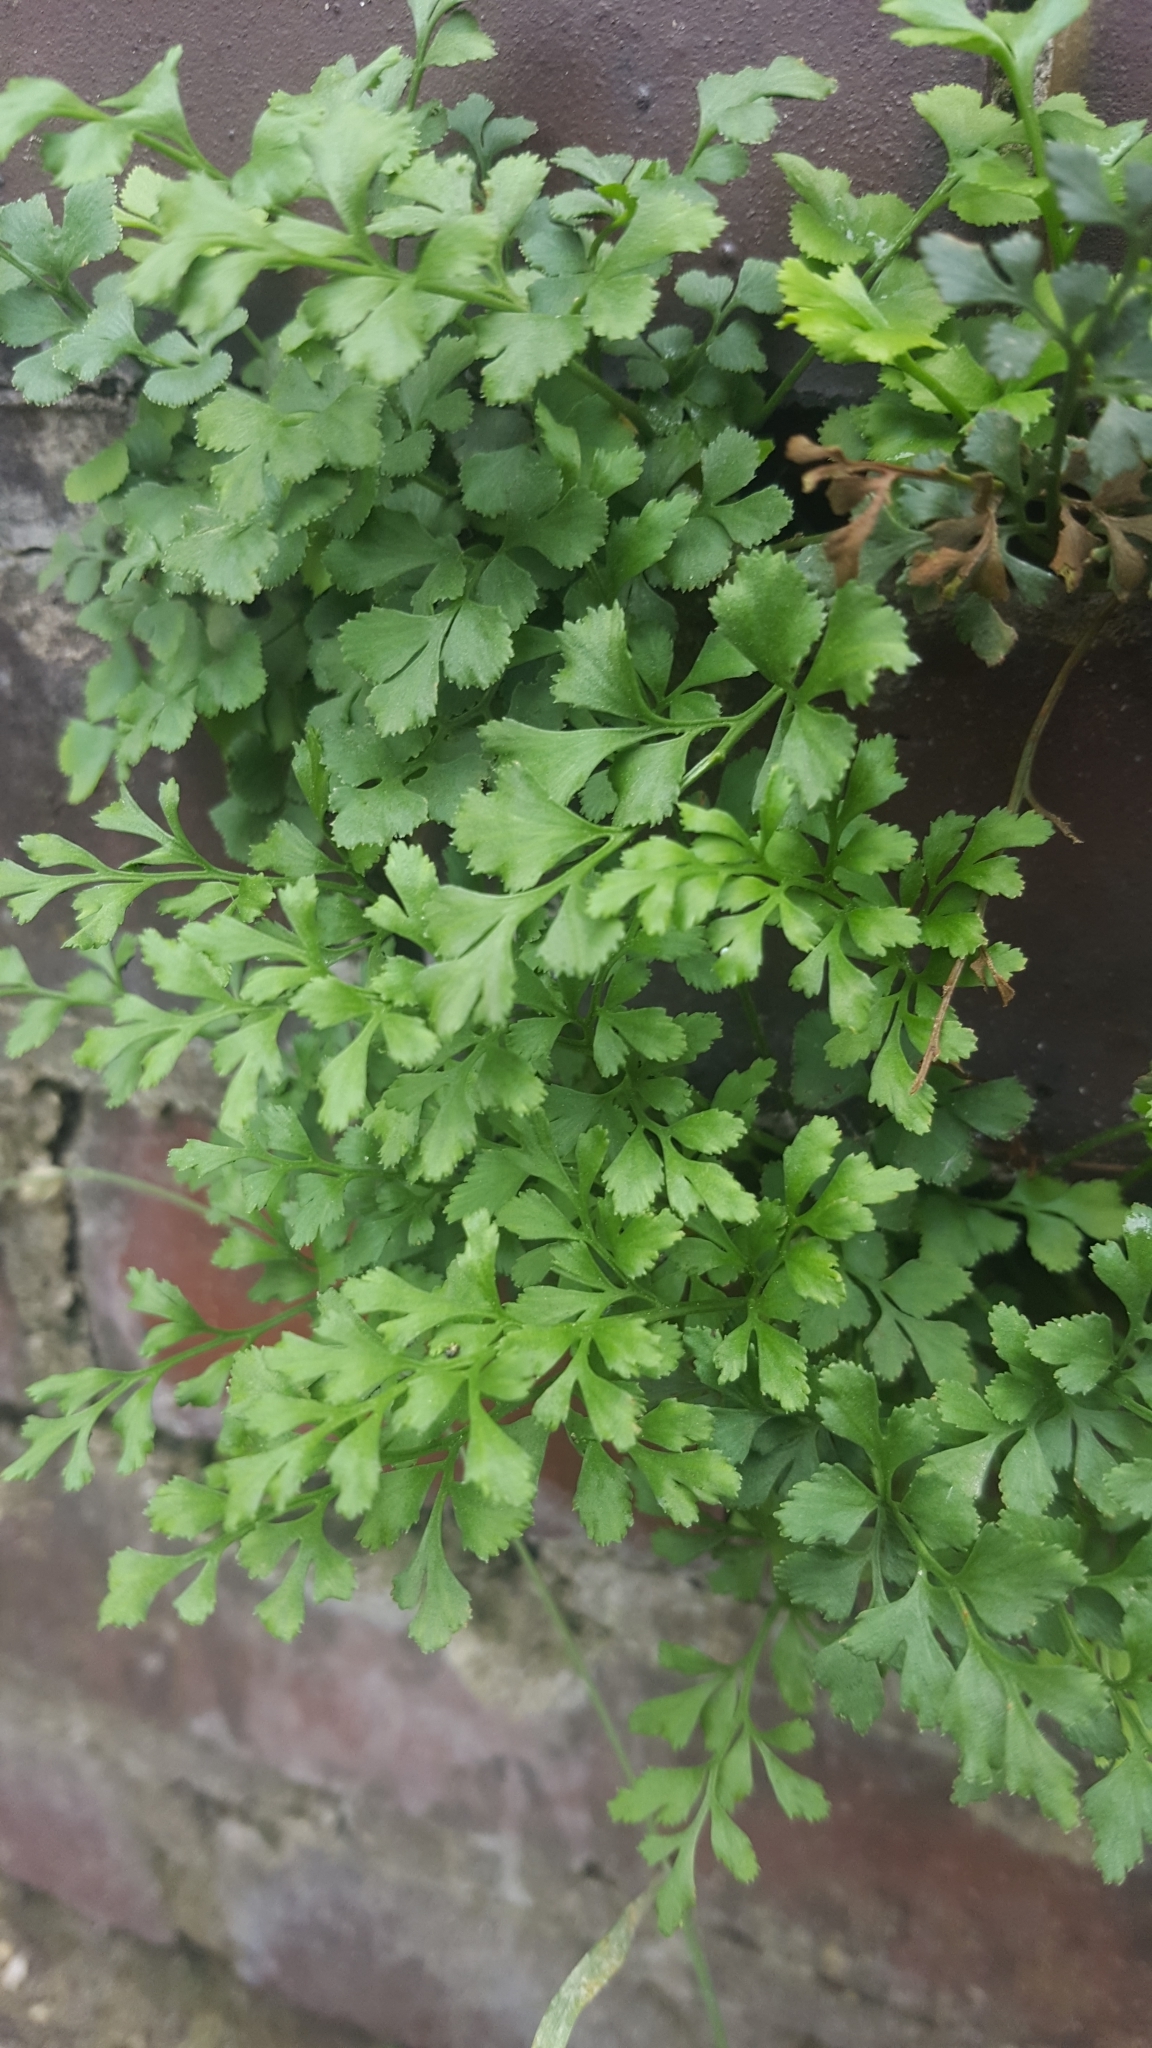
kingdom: Plantae
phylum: Tracheophyta
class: Polypodiopsida
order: Polypodiales
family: Aspleniaceae
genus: Asplenium
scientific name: Asplenium ruta-muraria
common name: Wall-rue
